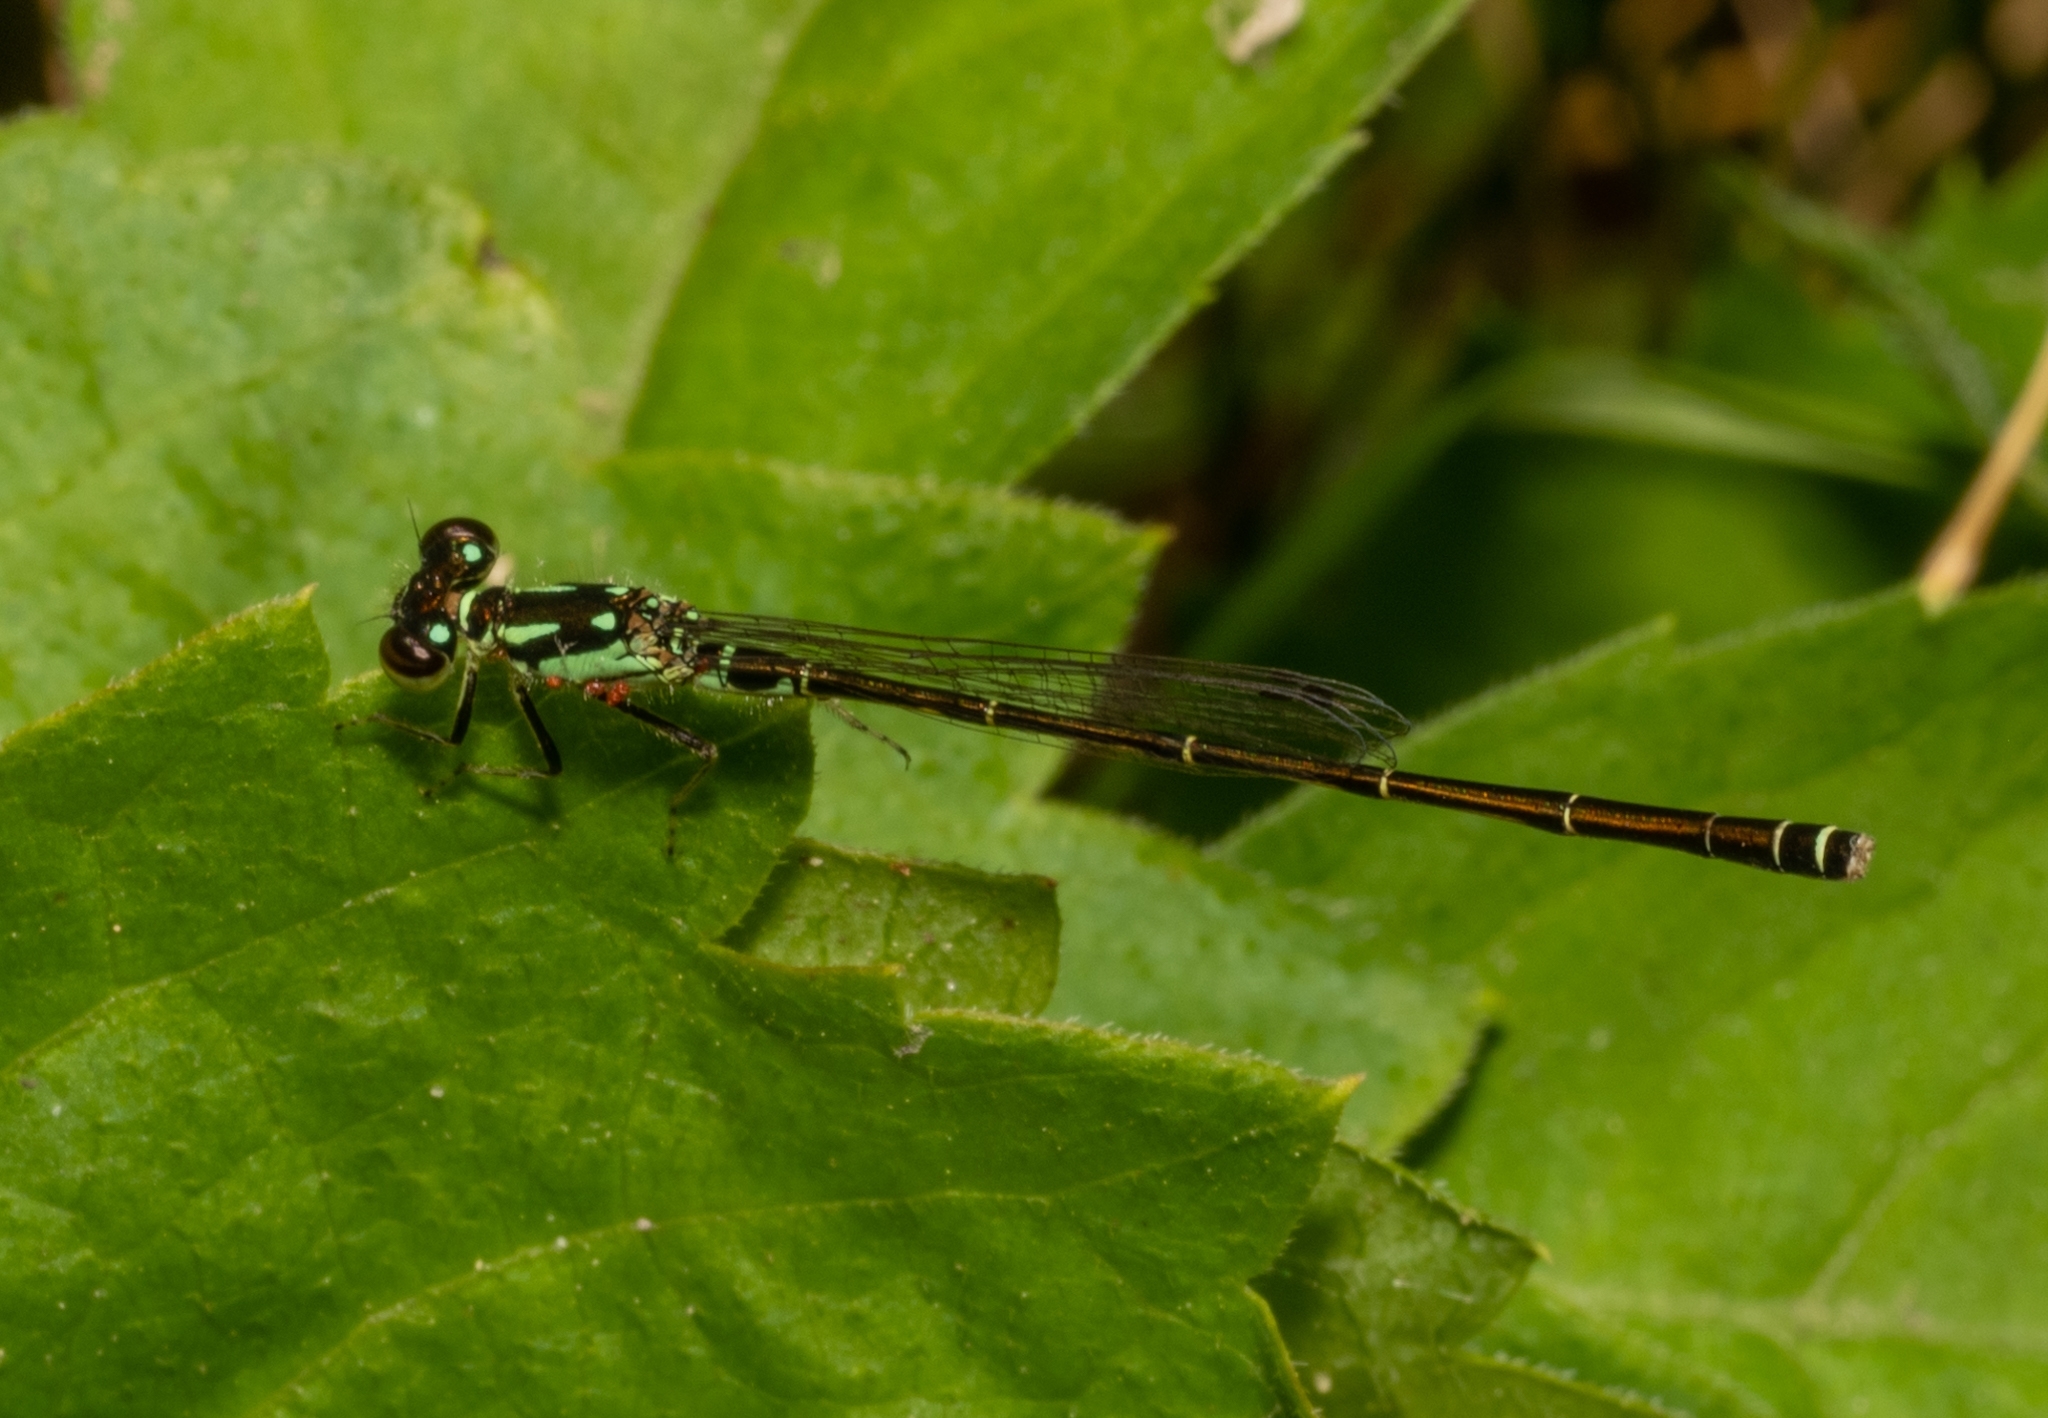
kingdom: Animalia
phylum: Arthropoda
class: Insecta
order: Odonata
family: Coenagrionidae
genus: Ischnura
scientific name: Ischnura posita
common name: Fragile forktail
